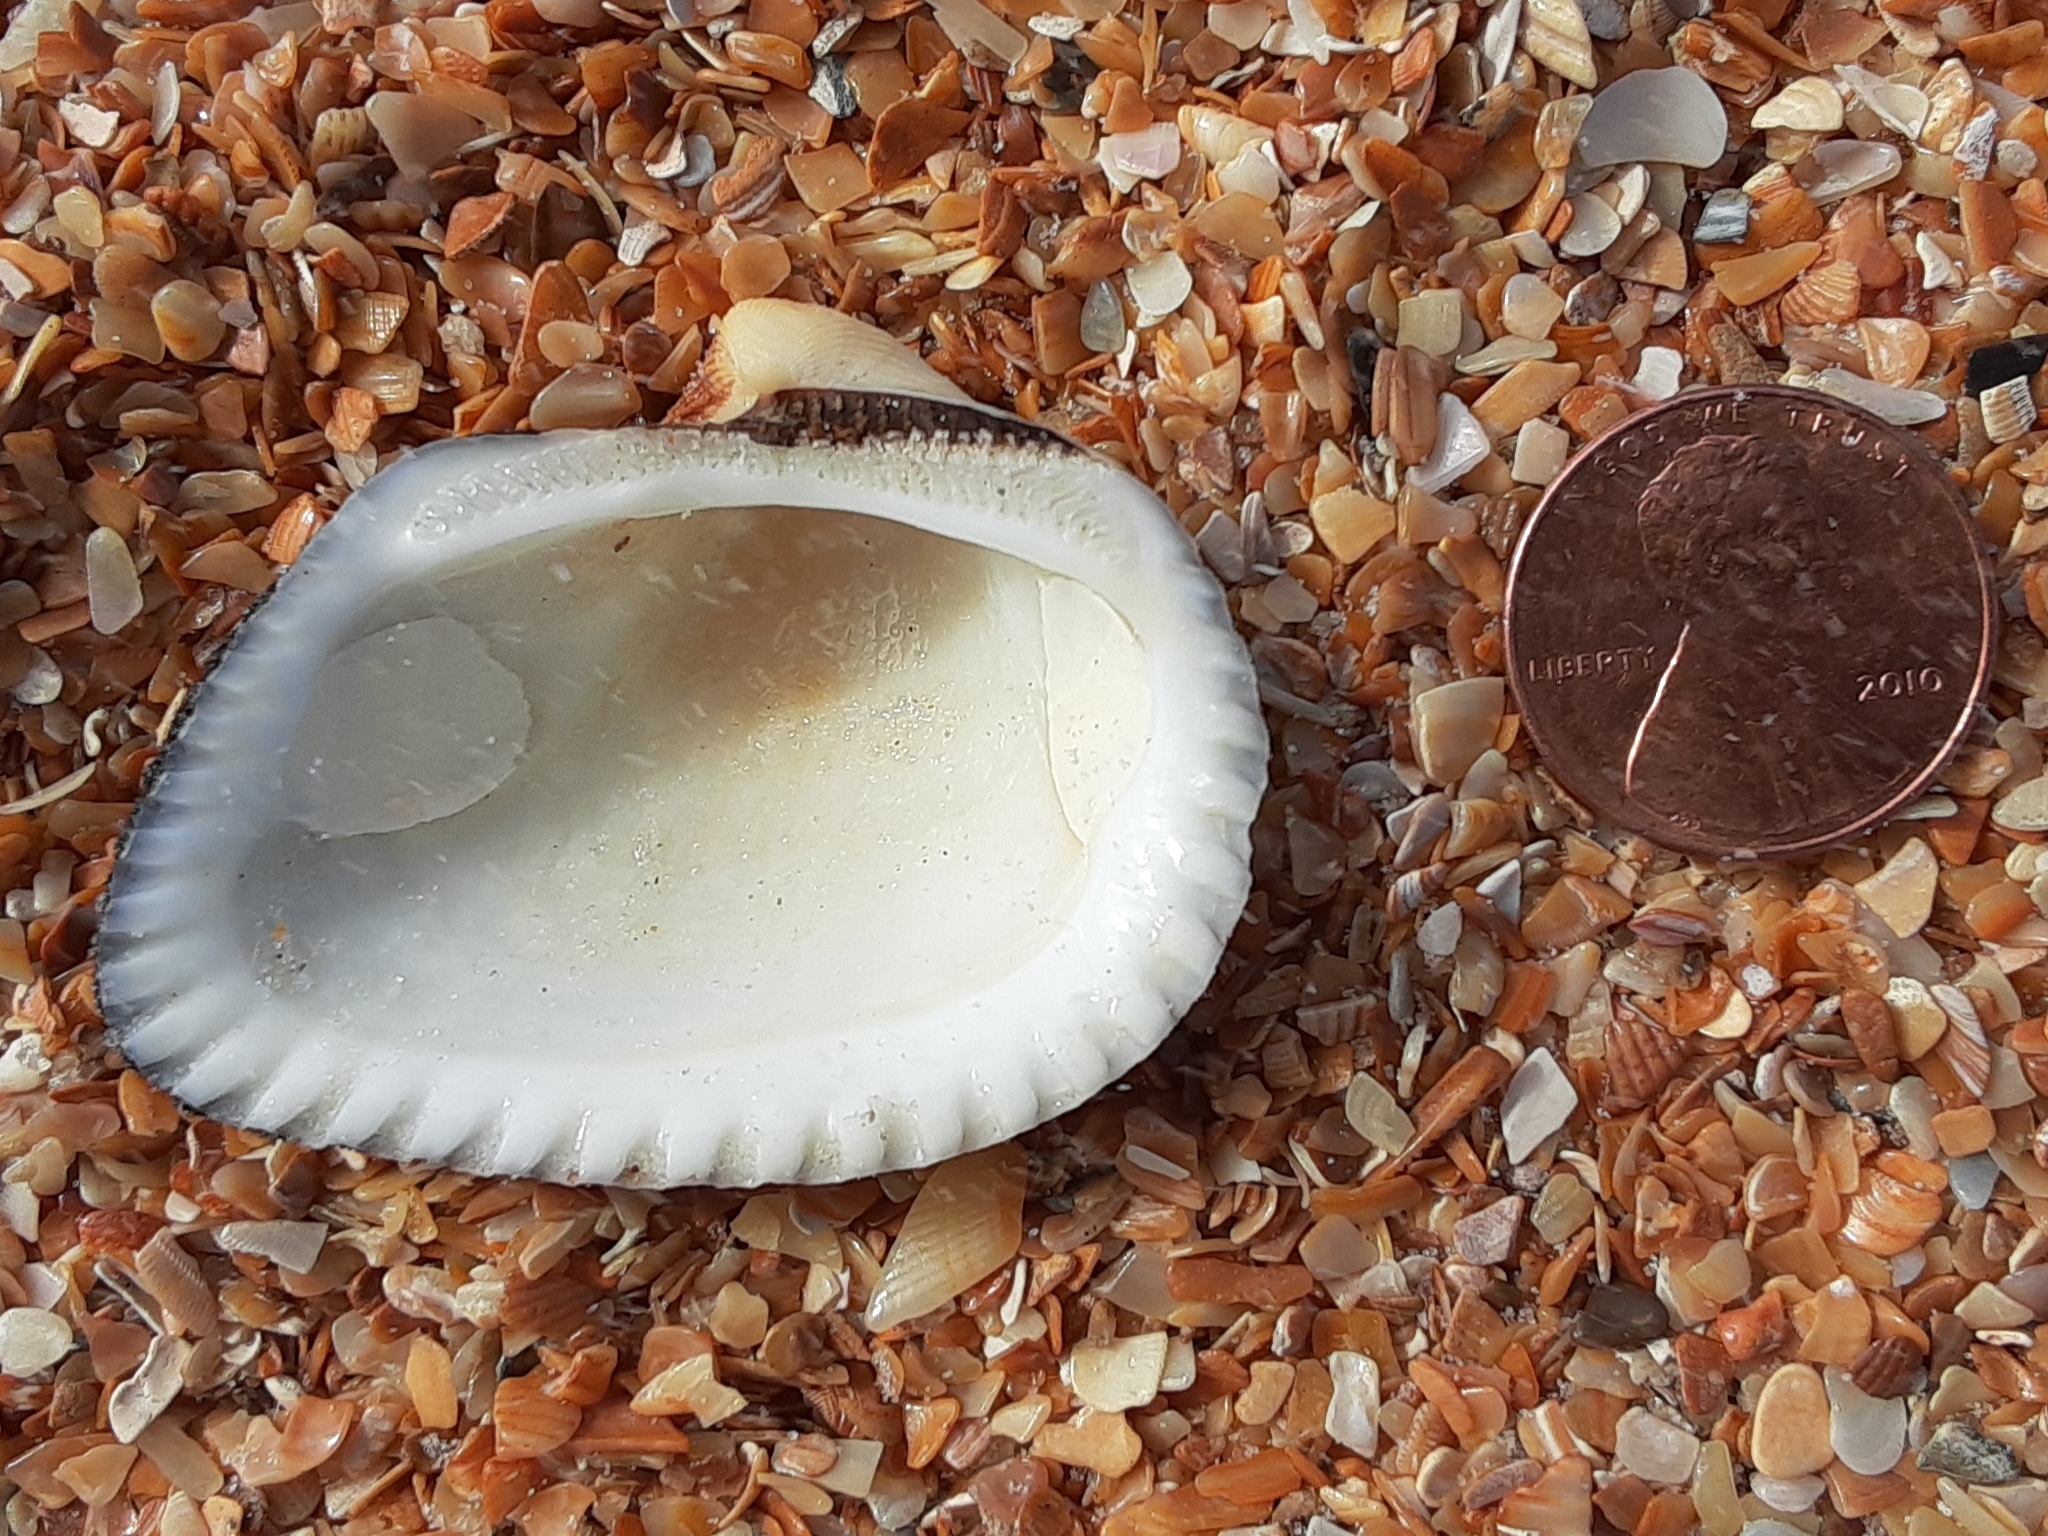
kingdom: Animalia
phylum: Mollusca
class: Bivalvia
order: Arcida
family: Noetiidae
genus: Noetia
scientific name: Noetia ponderosa
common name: Ponderous ark
